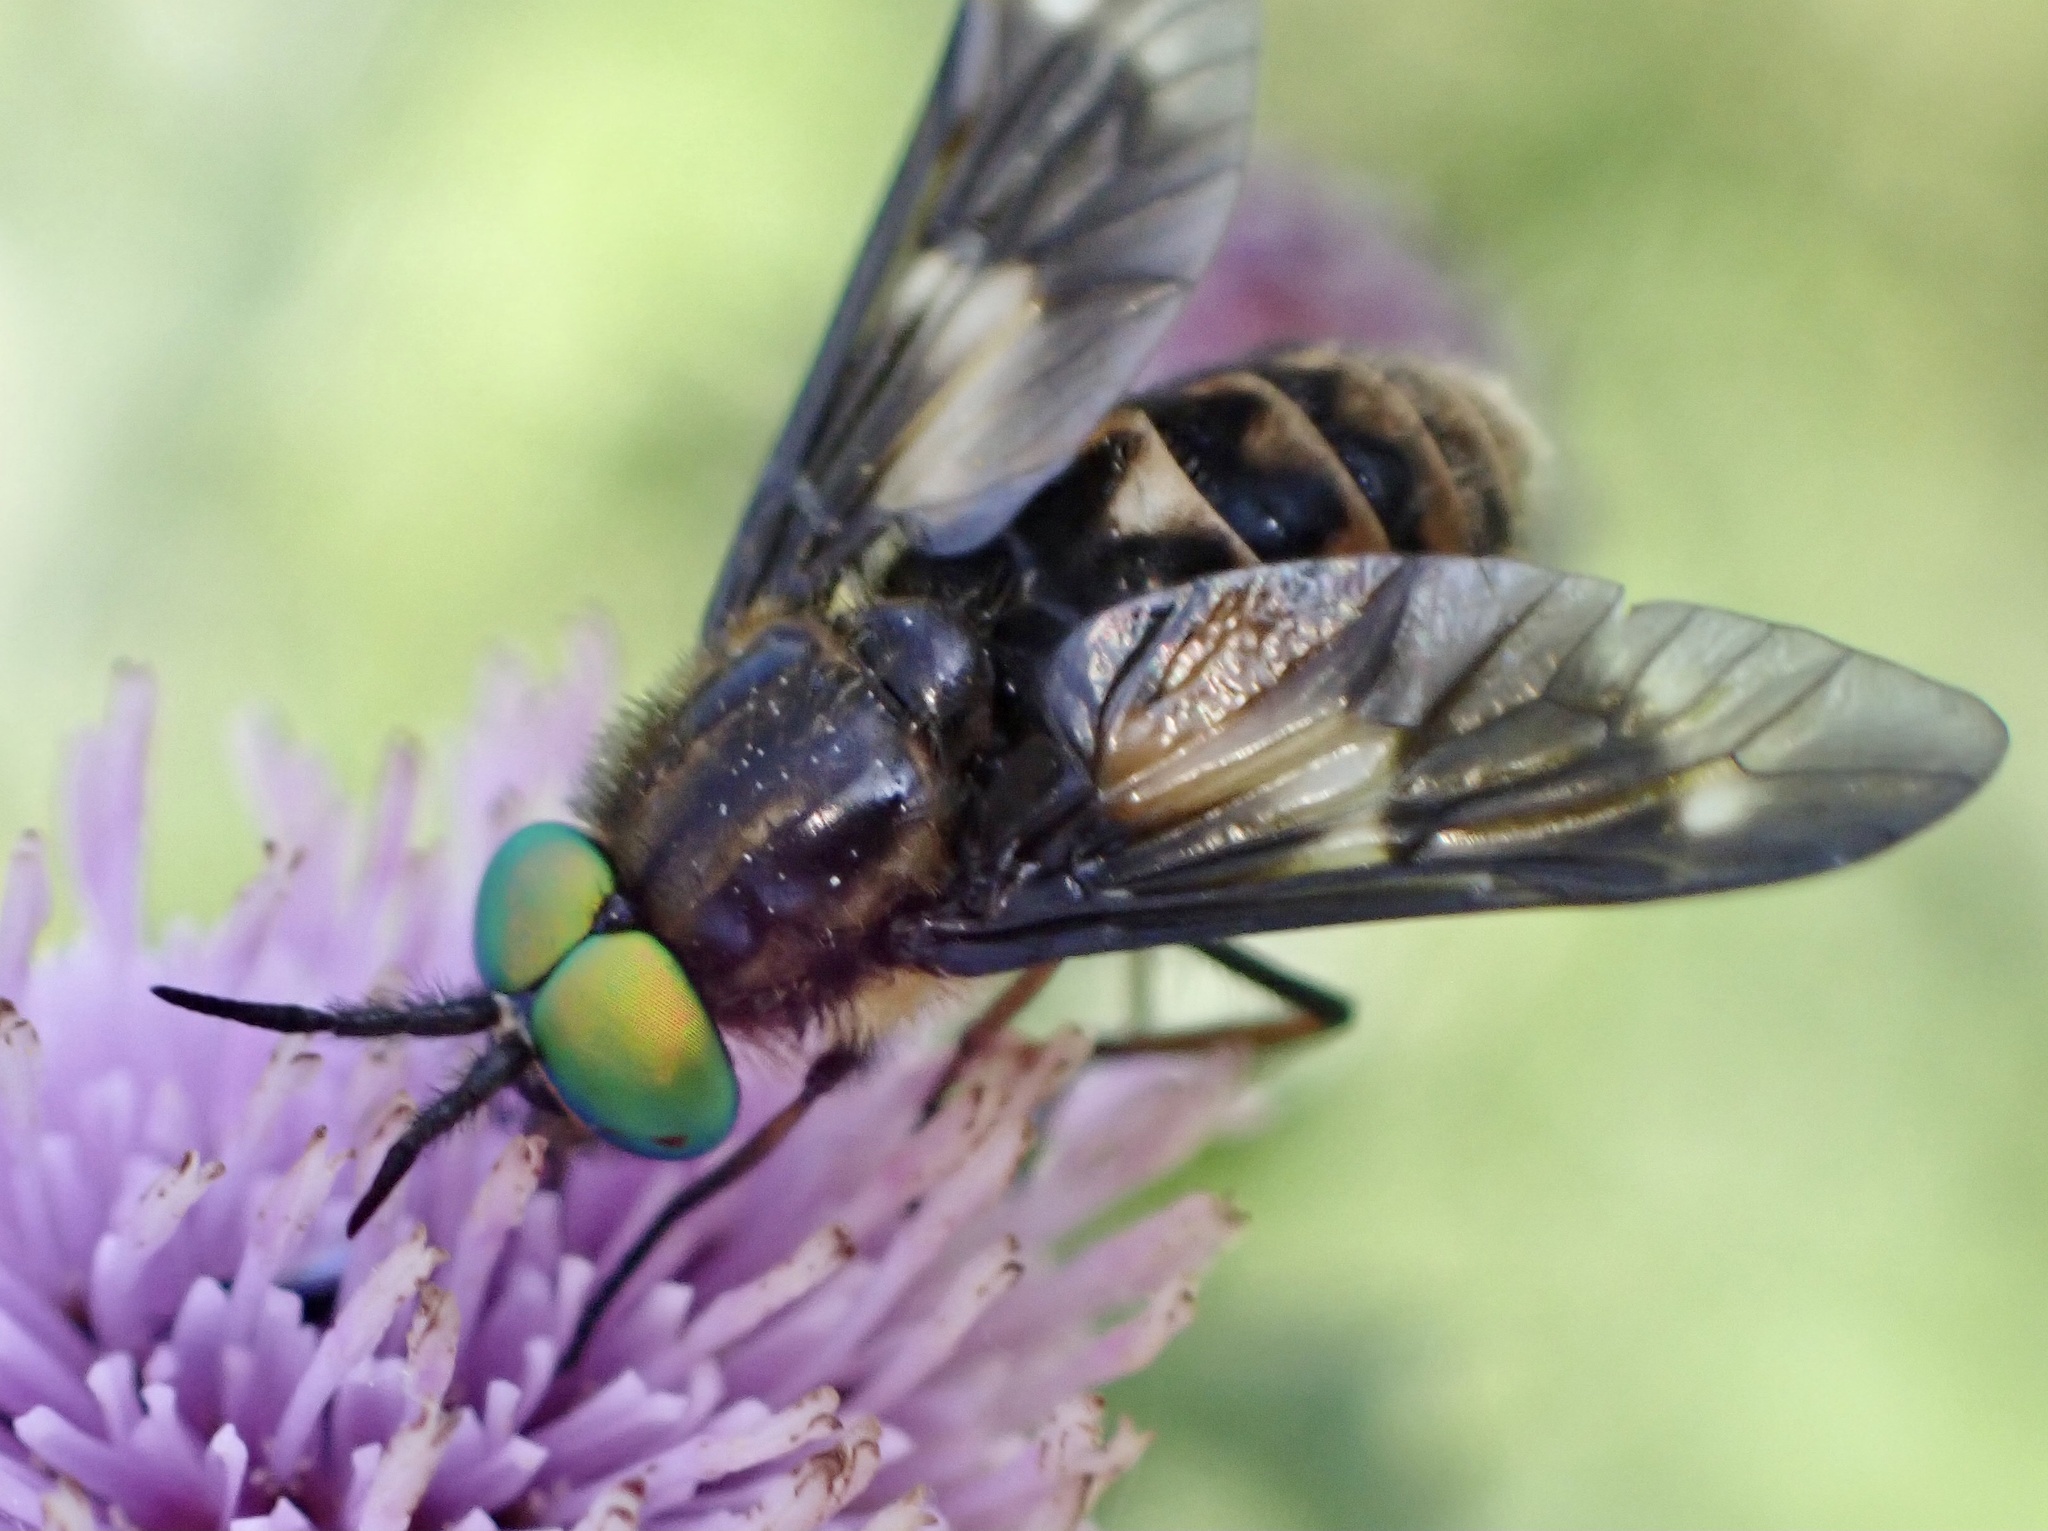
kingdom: Animalia
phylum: Arthropoda
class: Insecta
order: Diptera
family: Tabanidae
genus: Chrysops
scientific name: Chrysops relictus
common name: Twin-lobed deerfly
